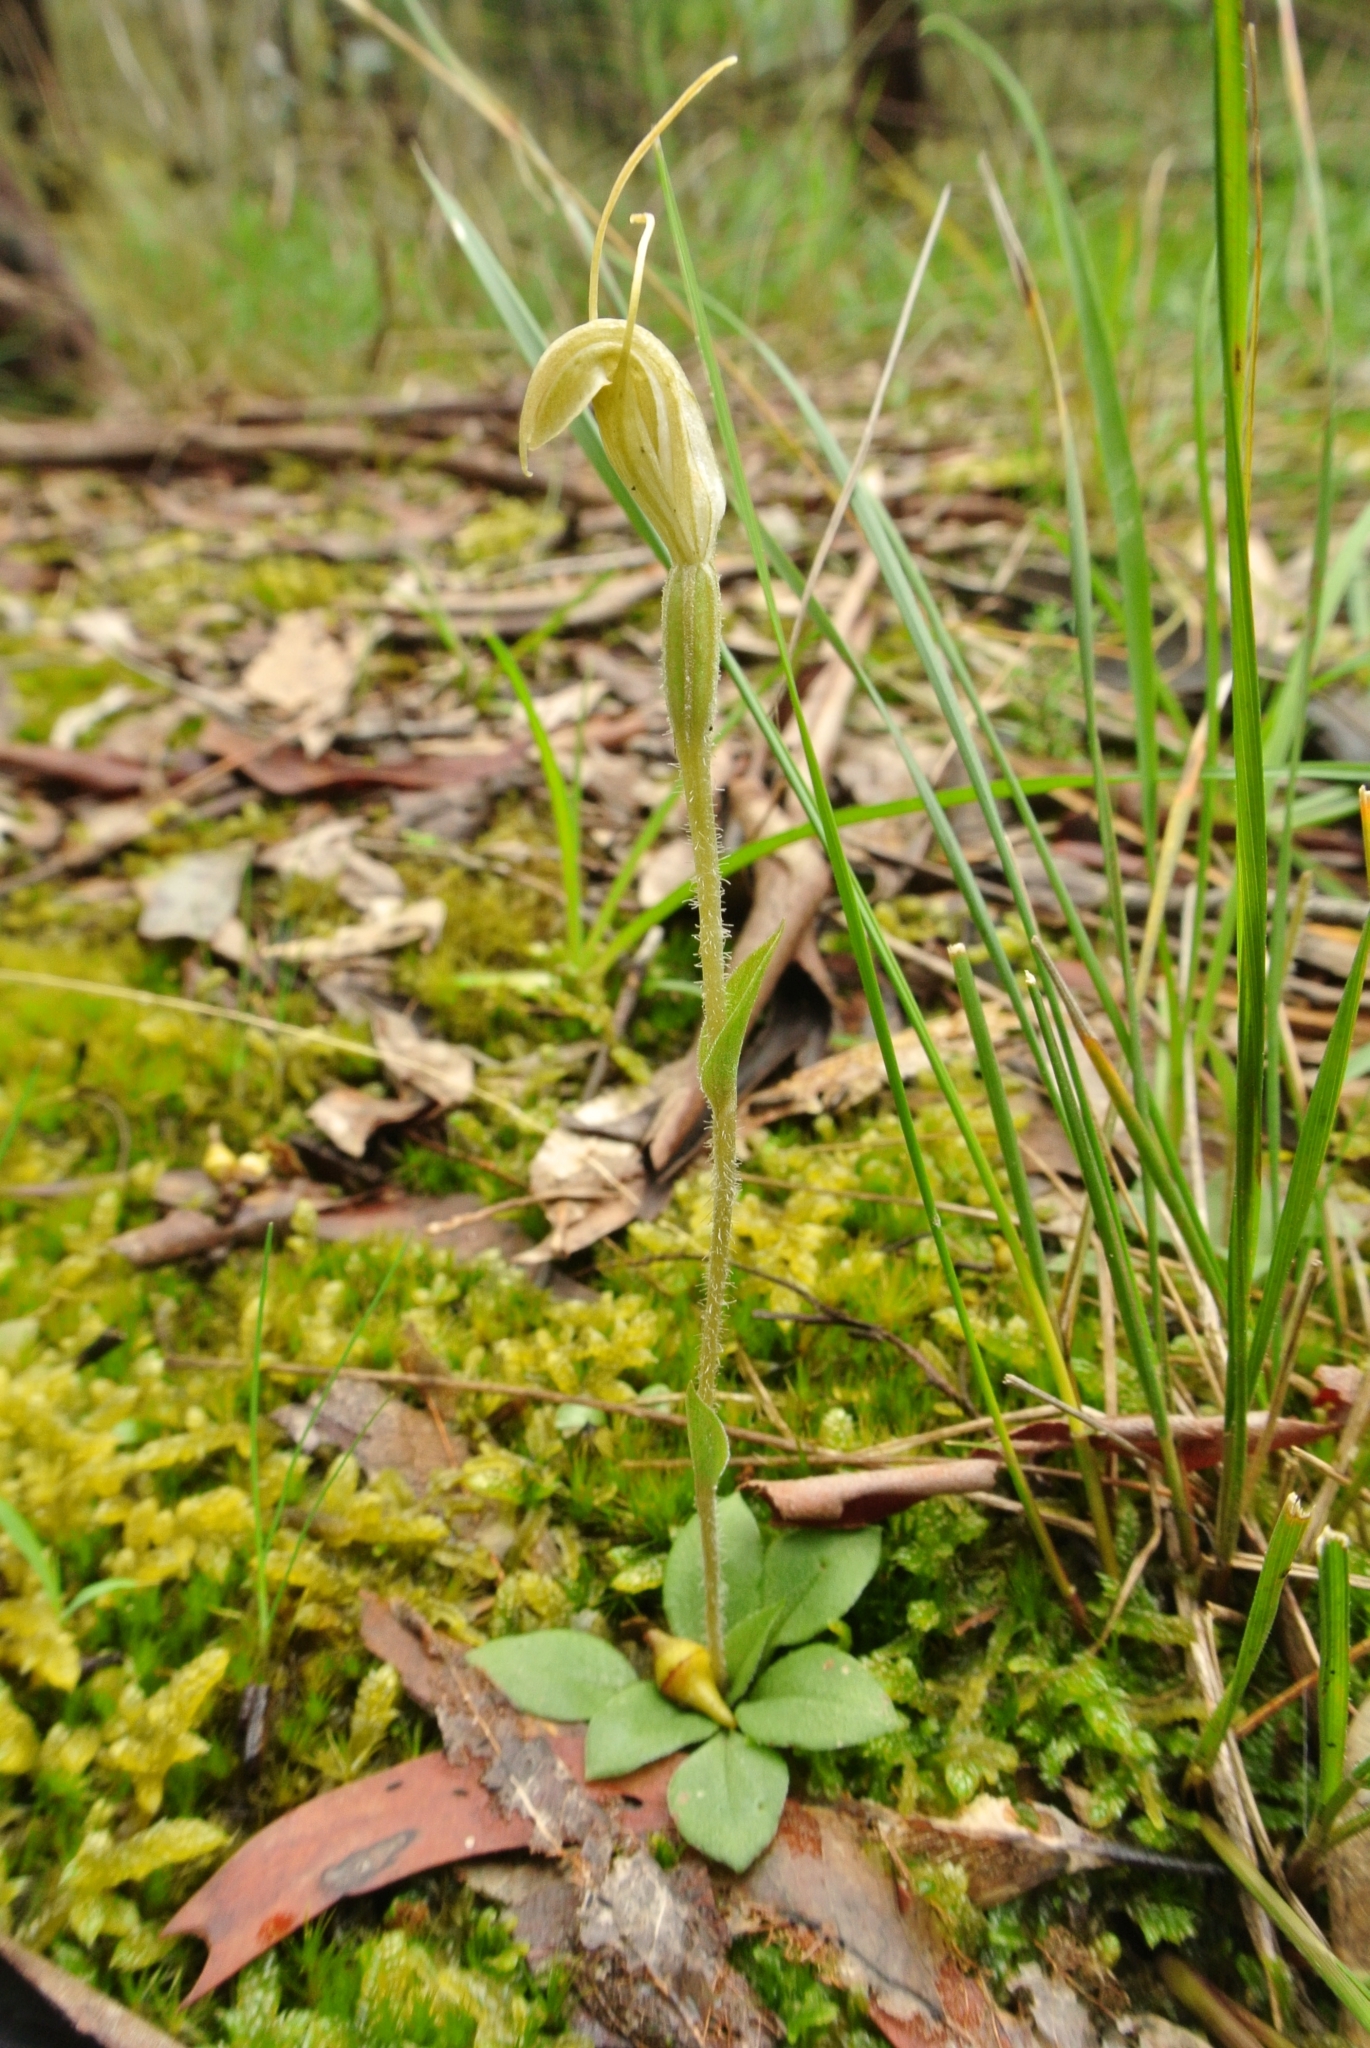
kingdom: Plantae
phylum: Tracheophyta
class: Liliopsida
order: Asparagales
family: Orchidaceae
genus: Pterostylis
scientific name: Pterostylis nana
